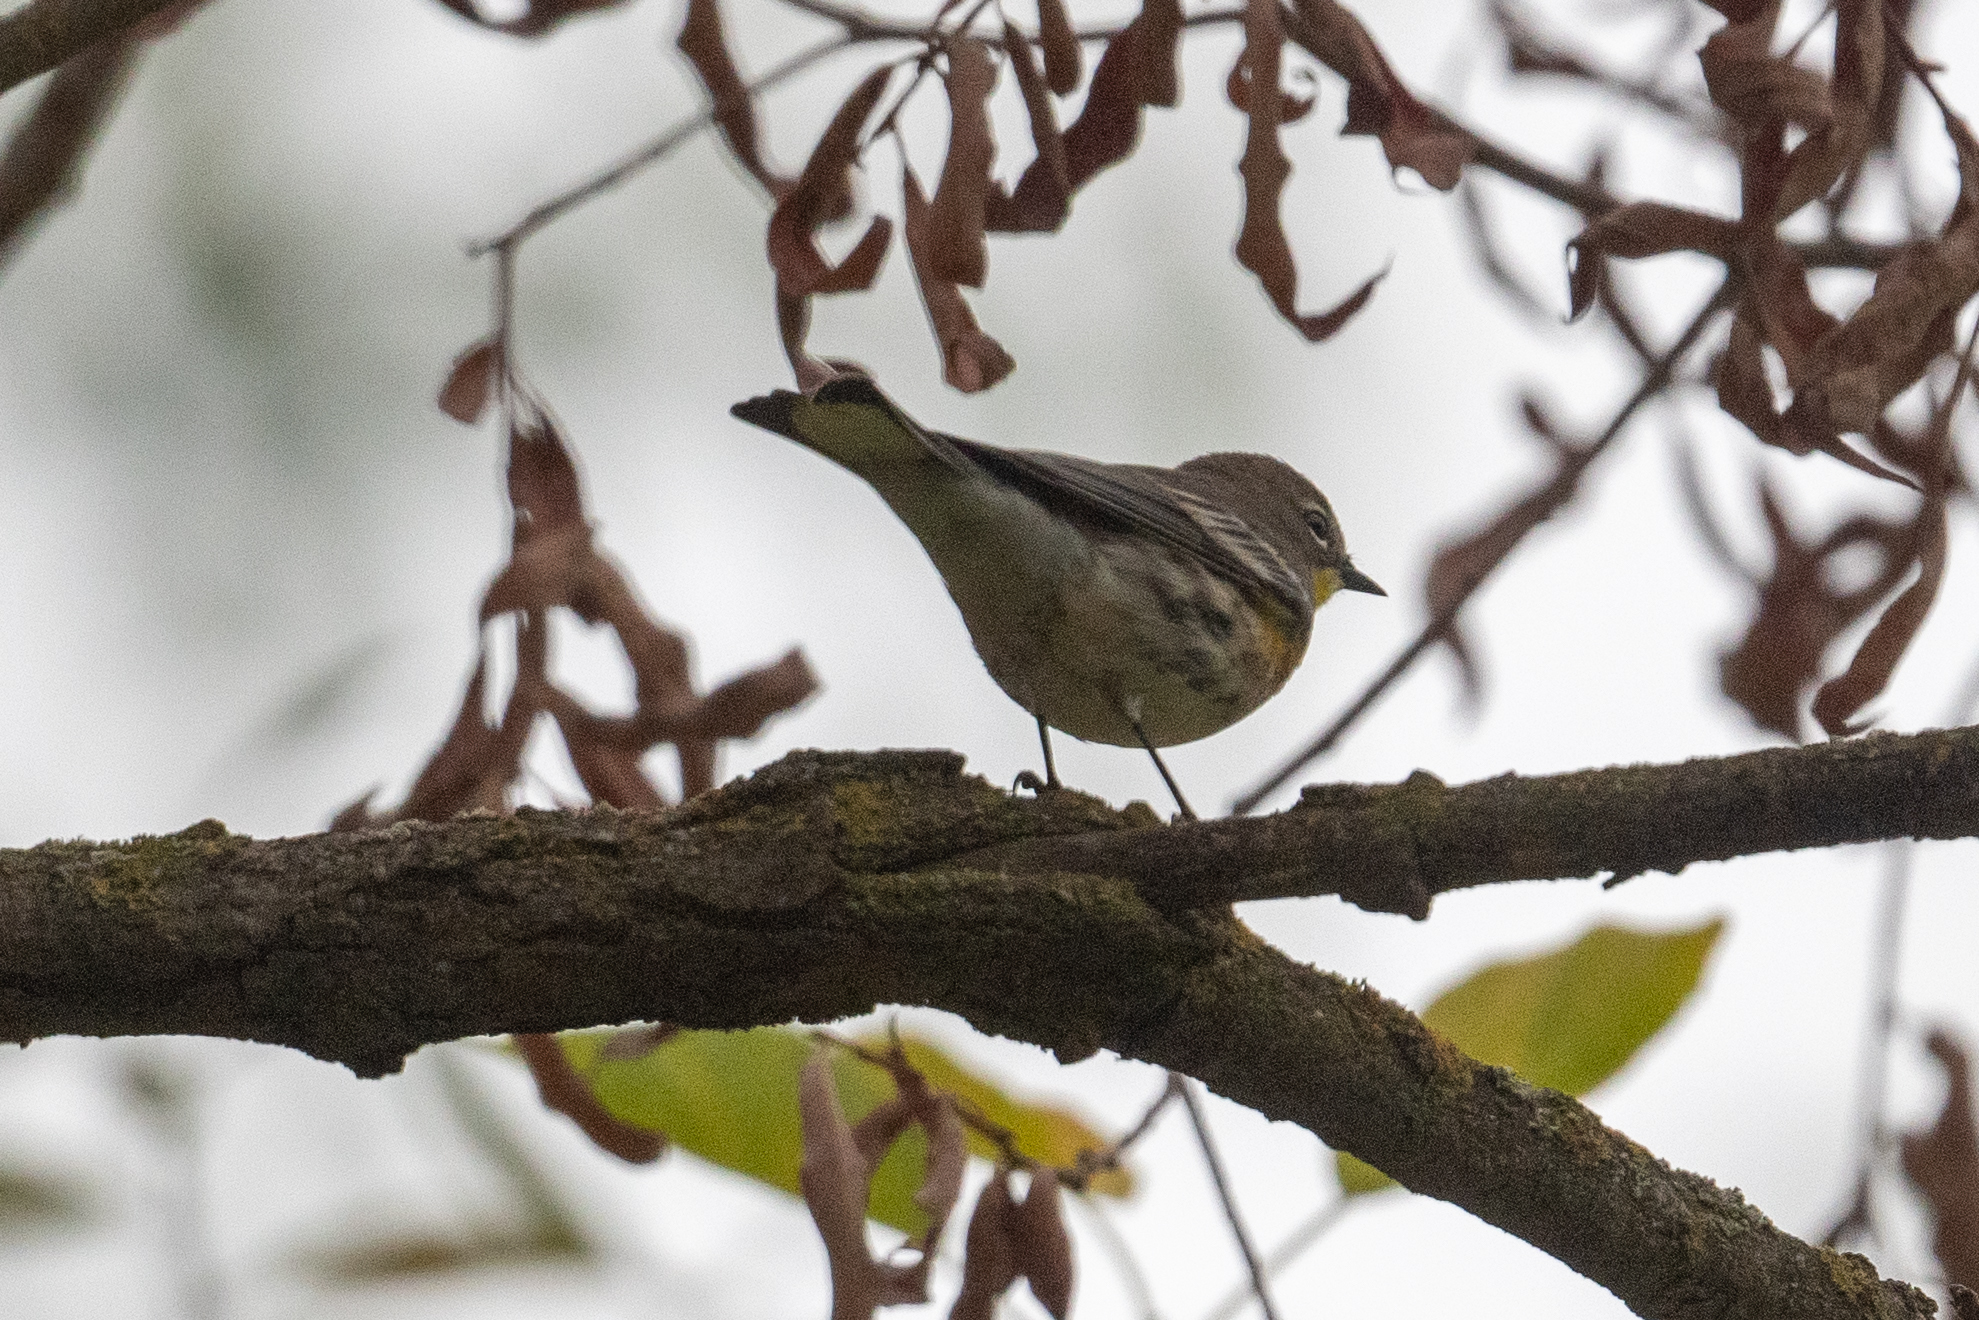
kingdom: Animalia
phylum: Chordata
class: Aves
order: Passeriformes
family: Parulidae
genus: Setophaga
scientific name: Setophaga coronata
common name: Myrtle warbler
